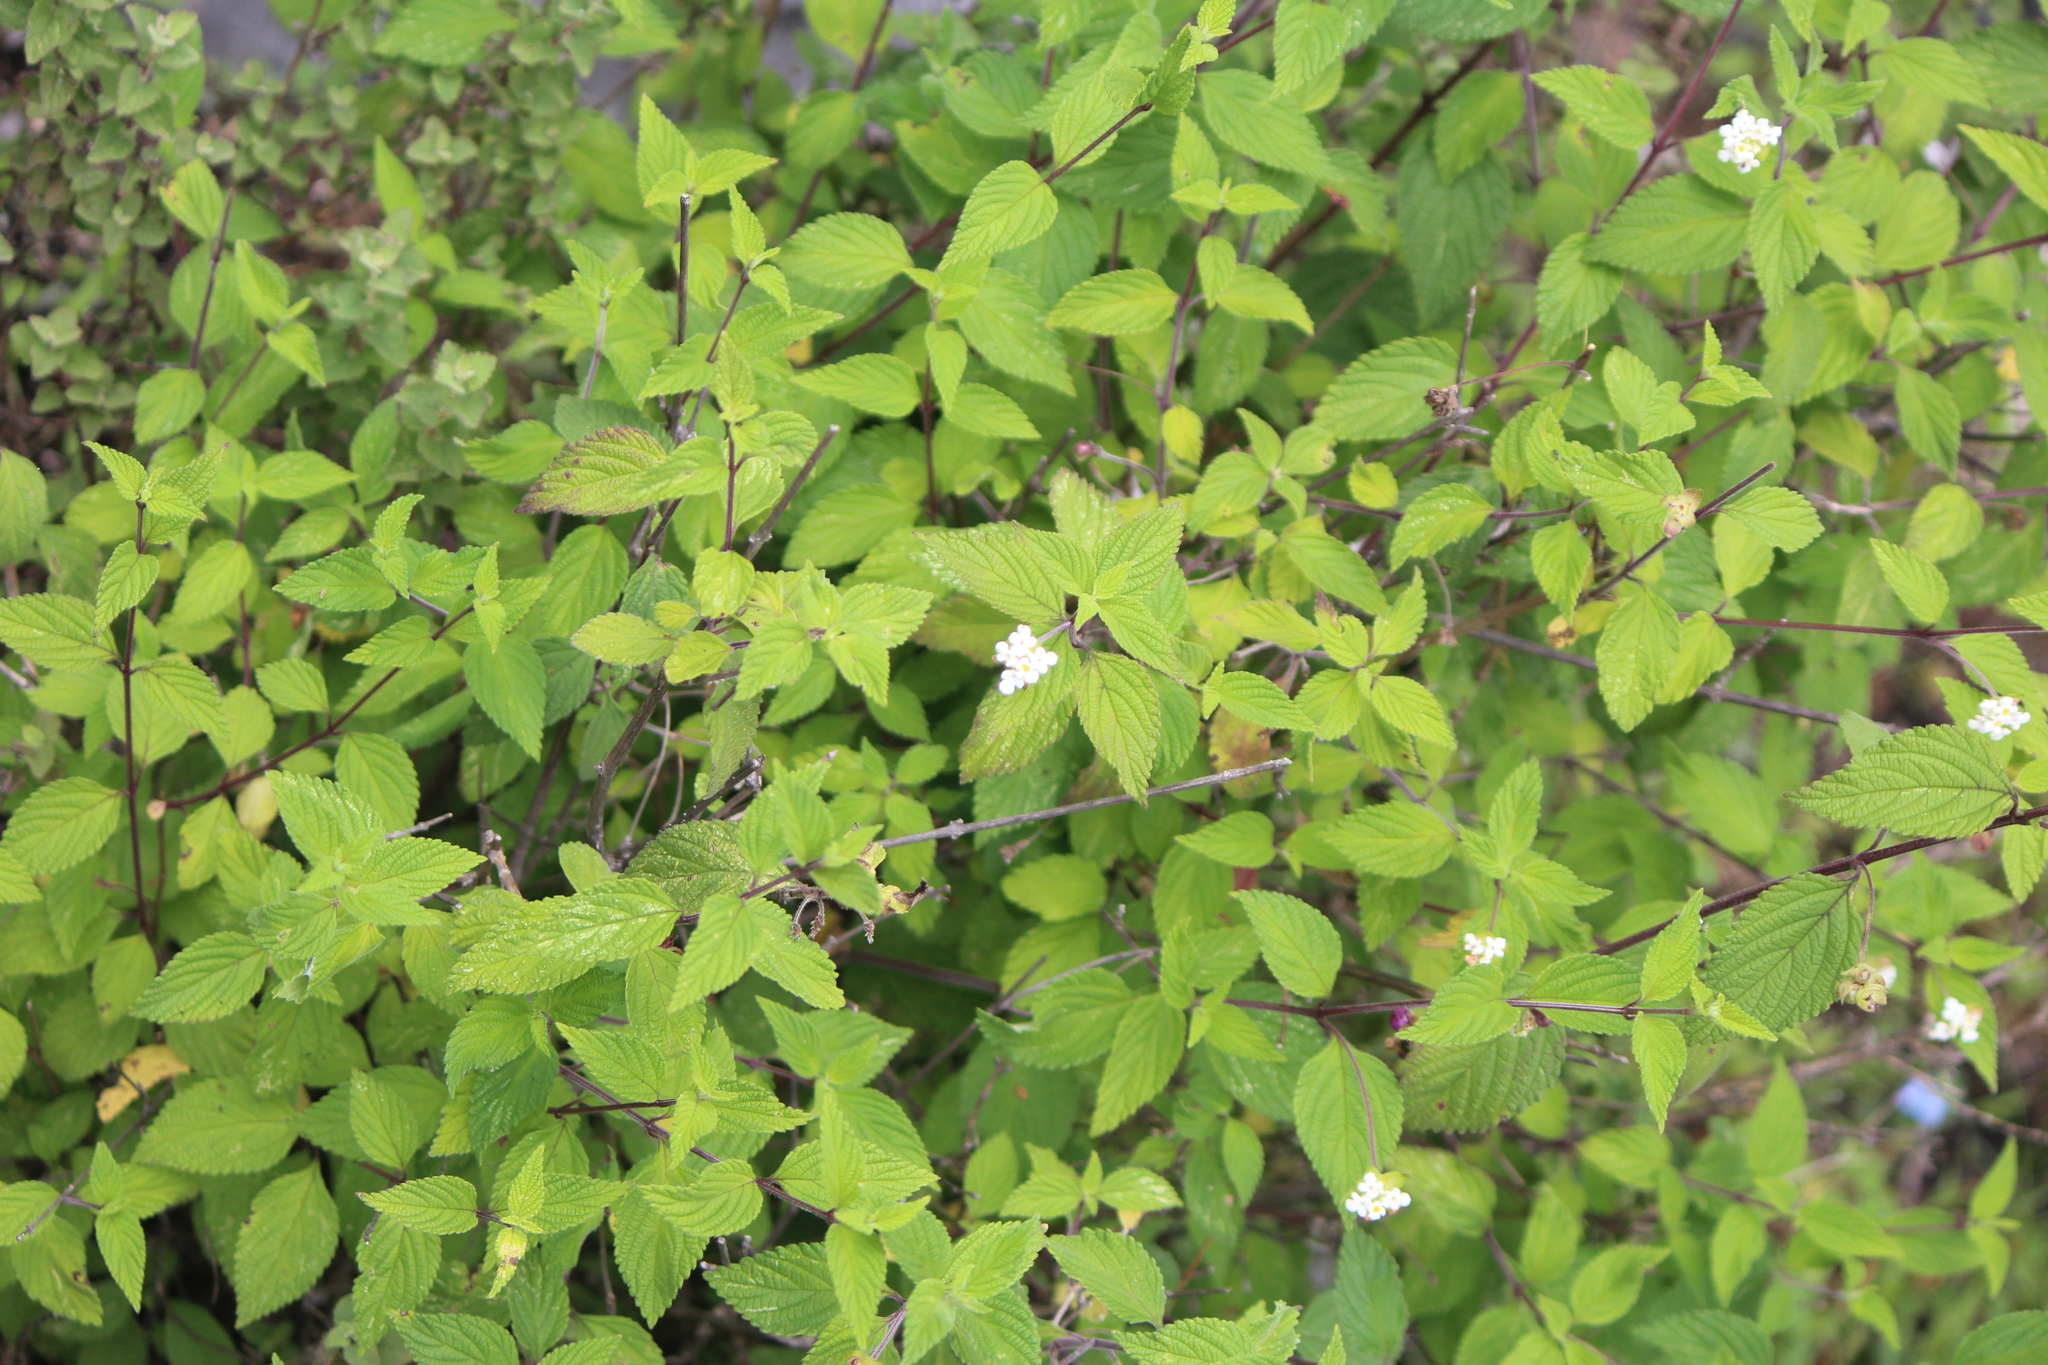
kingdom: Plantae
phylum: Tracheophyta
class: Magnoliopsida
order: Lamiales
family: Verbenaceae
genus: Lantana
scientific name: Lantana hirta
